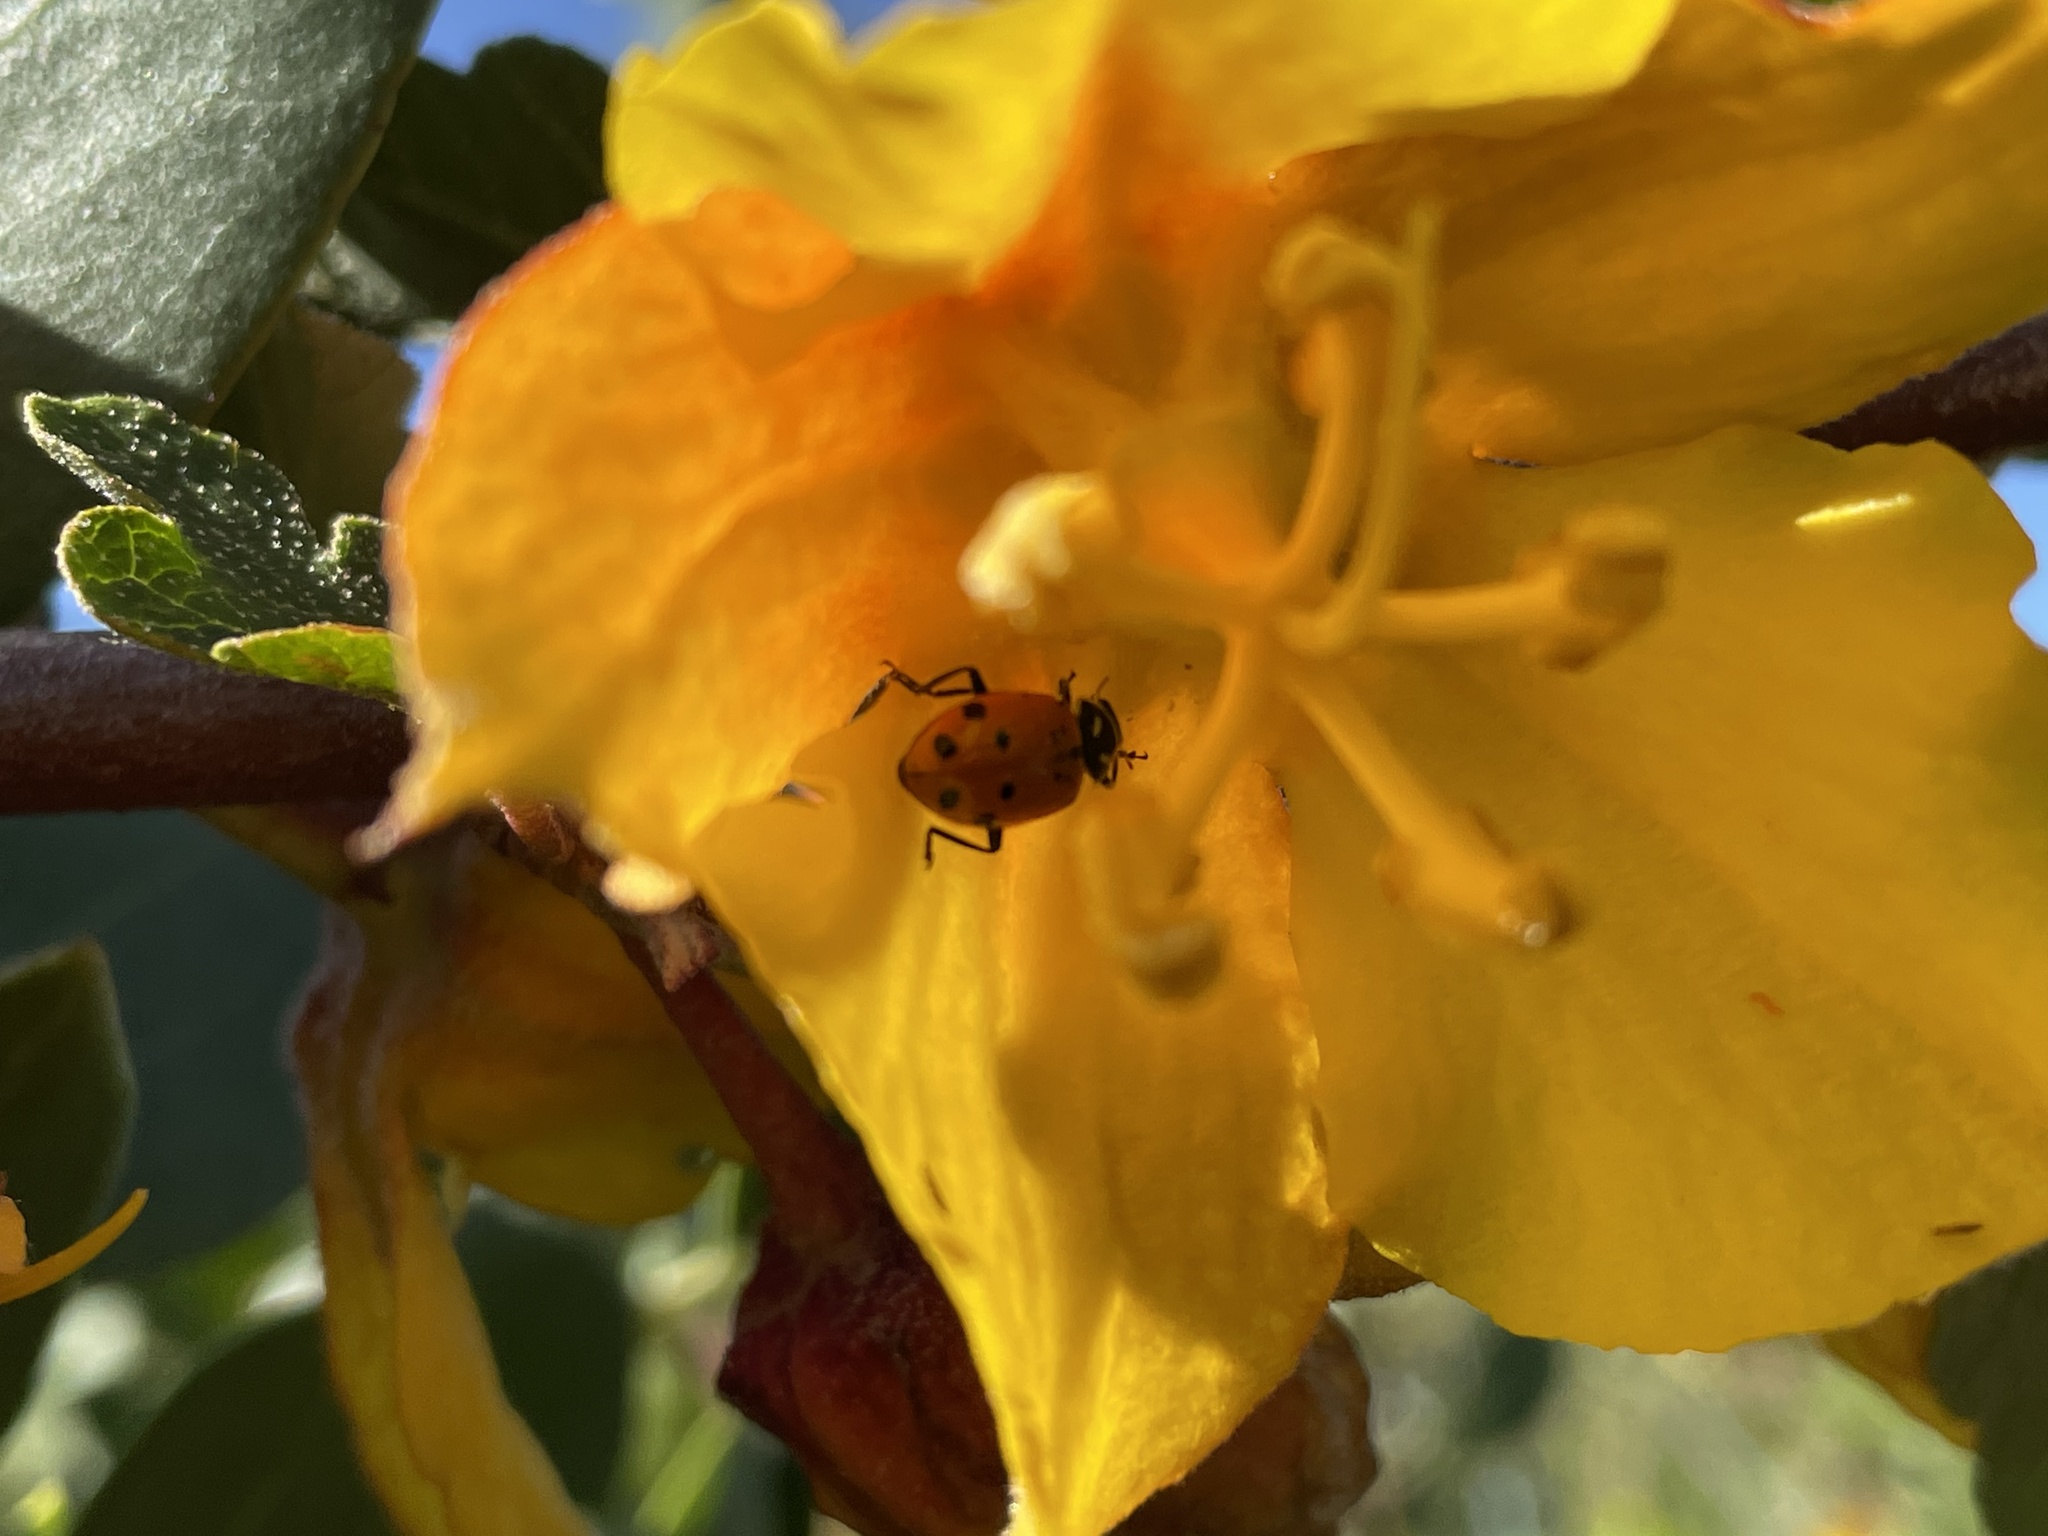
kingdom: Animalia
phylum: Arthropoda
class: Insecta
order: Coleoptera
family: Coccinellidae
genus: Hippodamia
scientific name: Hippodamia convergens
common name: Convergent lady beetle
